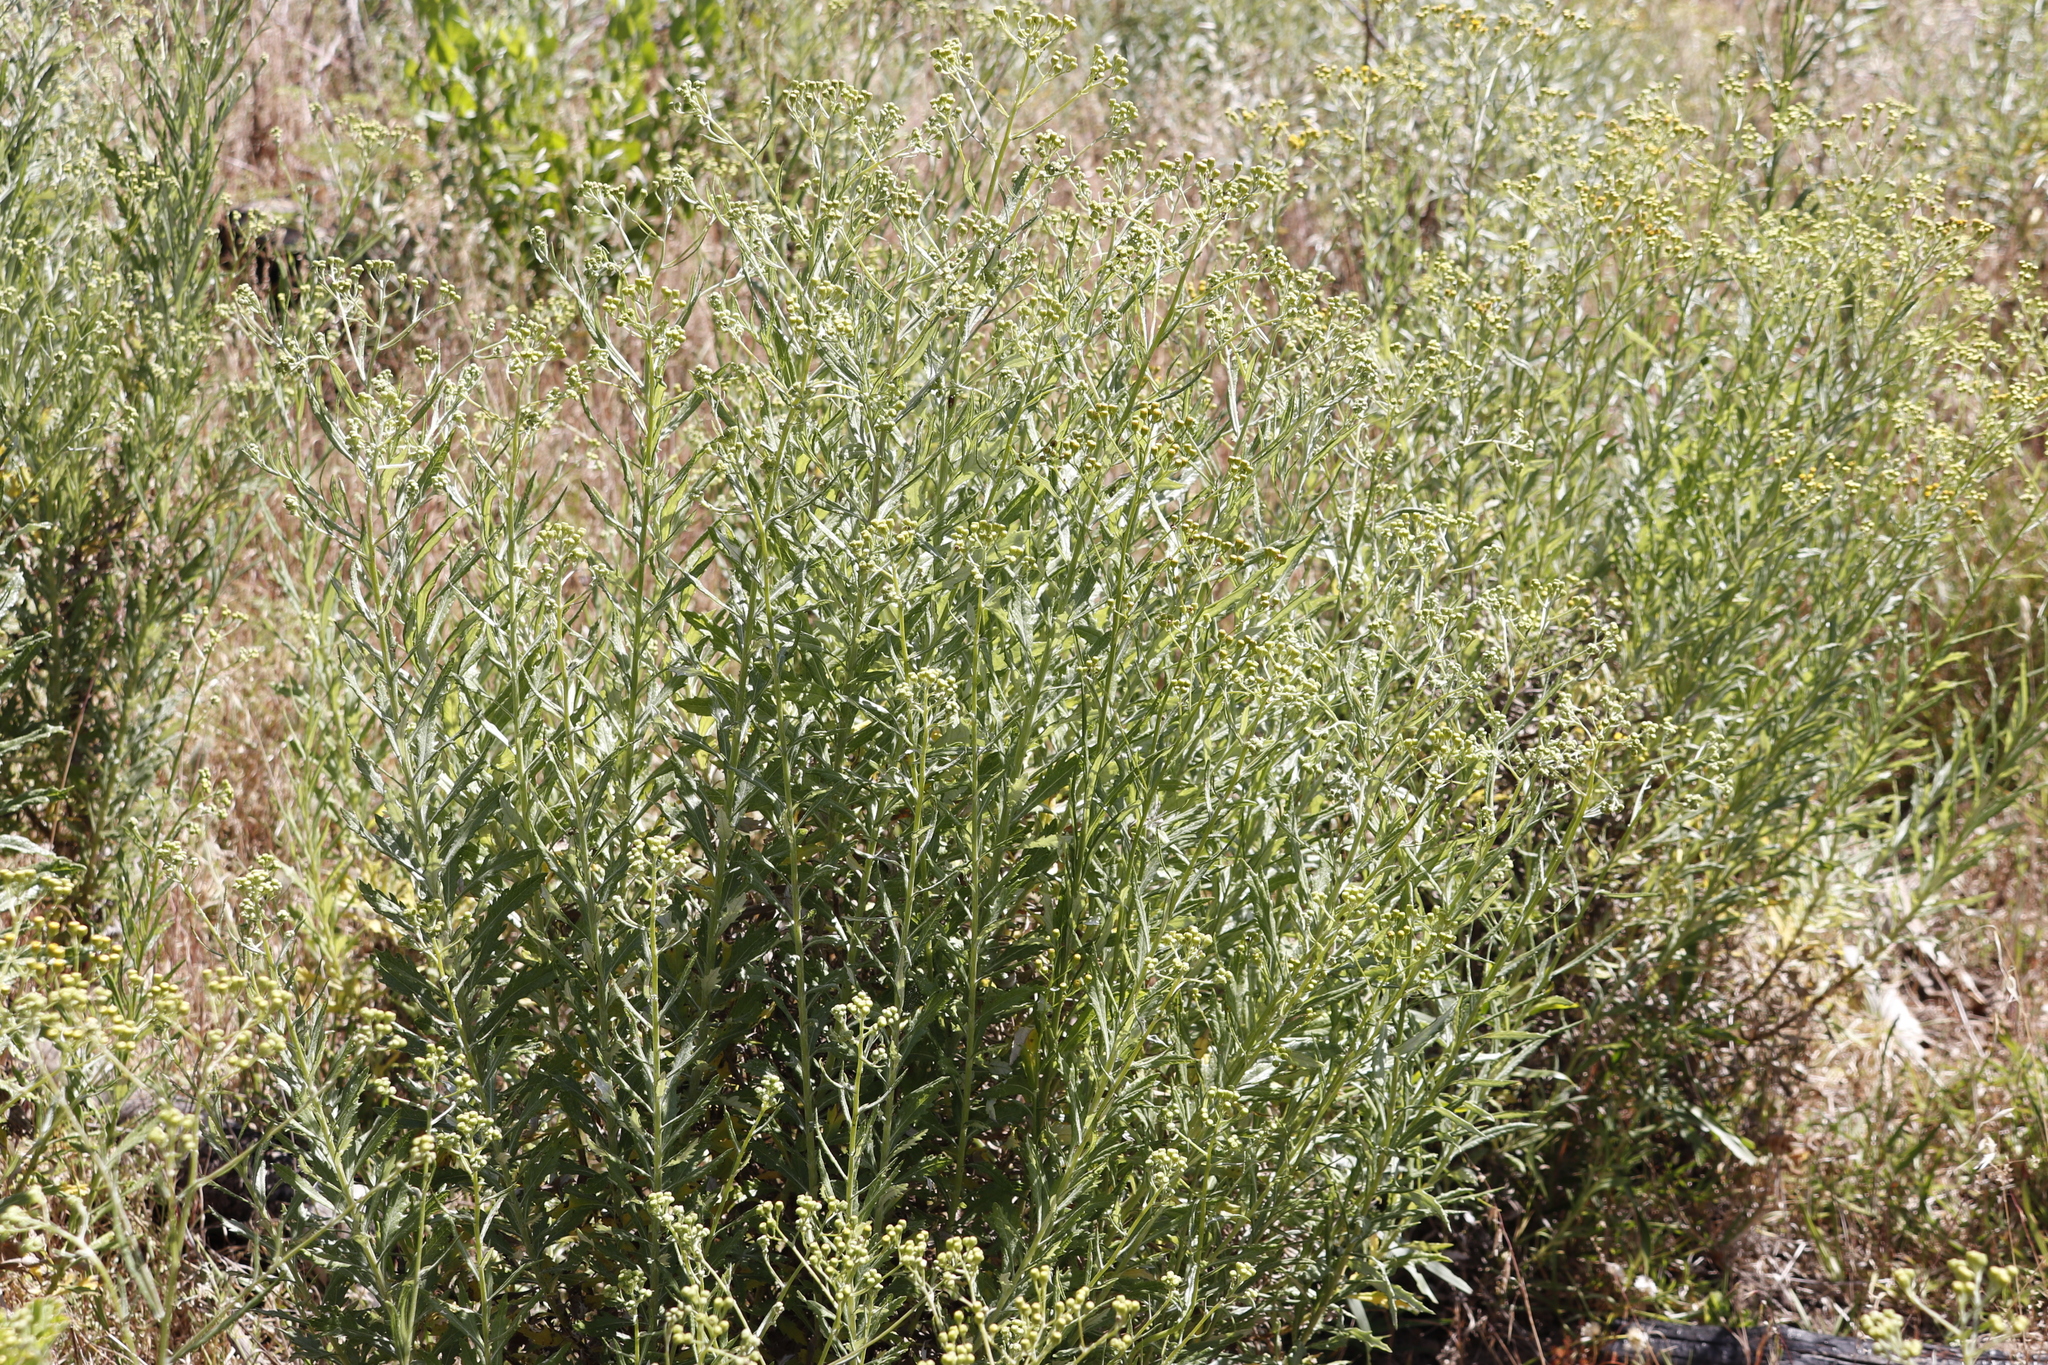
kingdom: Plantae
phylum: Tracheophyta
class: Magnoliopsida
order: Asterales
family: Asteraceae
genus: Senecio
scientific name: Senecio pterophorus
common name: Shoddy ragwort
